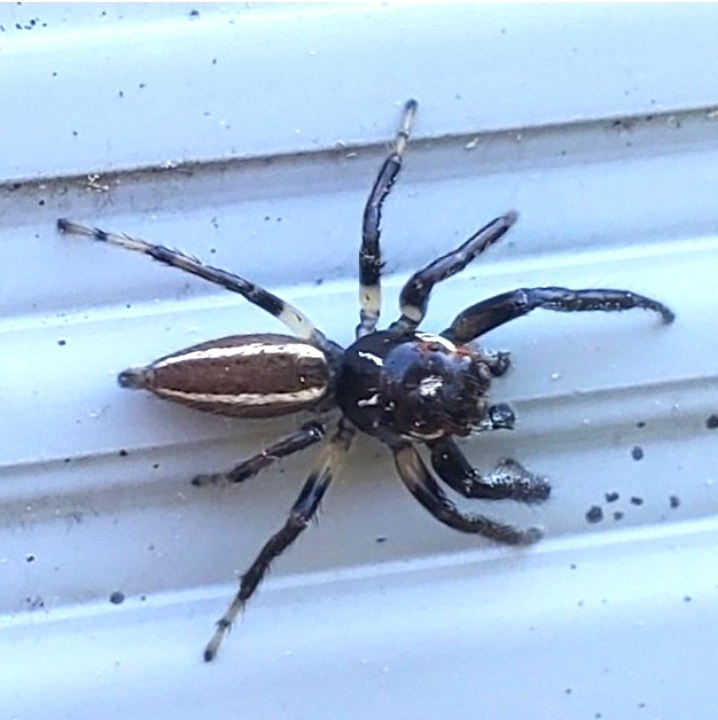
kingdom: Animalia
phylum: Arthropoda
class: Arachnida
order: Araneae
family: Salticidae
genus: Colonus
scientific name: Colonus sylvanus
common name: Jumping spiders
